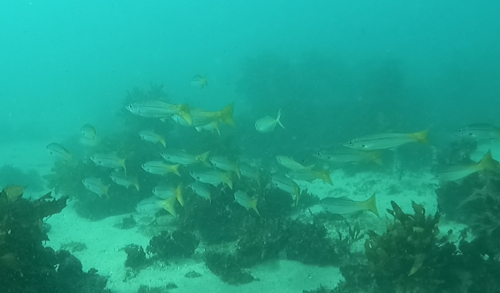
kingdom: Animalia
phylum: Chordata
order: Perciformes
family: Dinolestidae
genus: Dinolestes
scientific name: Dinolestes lewini
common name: Jack pike
